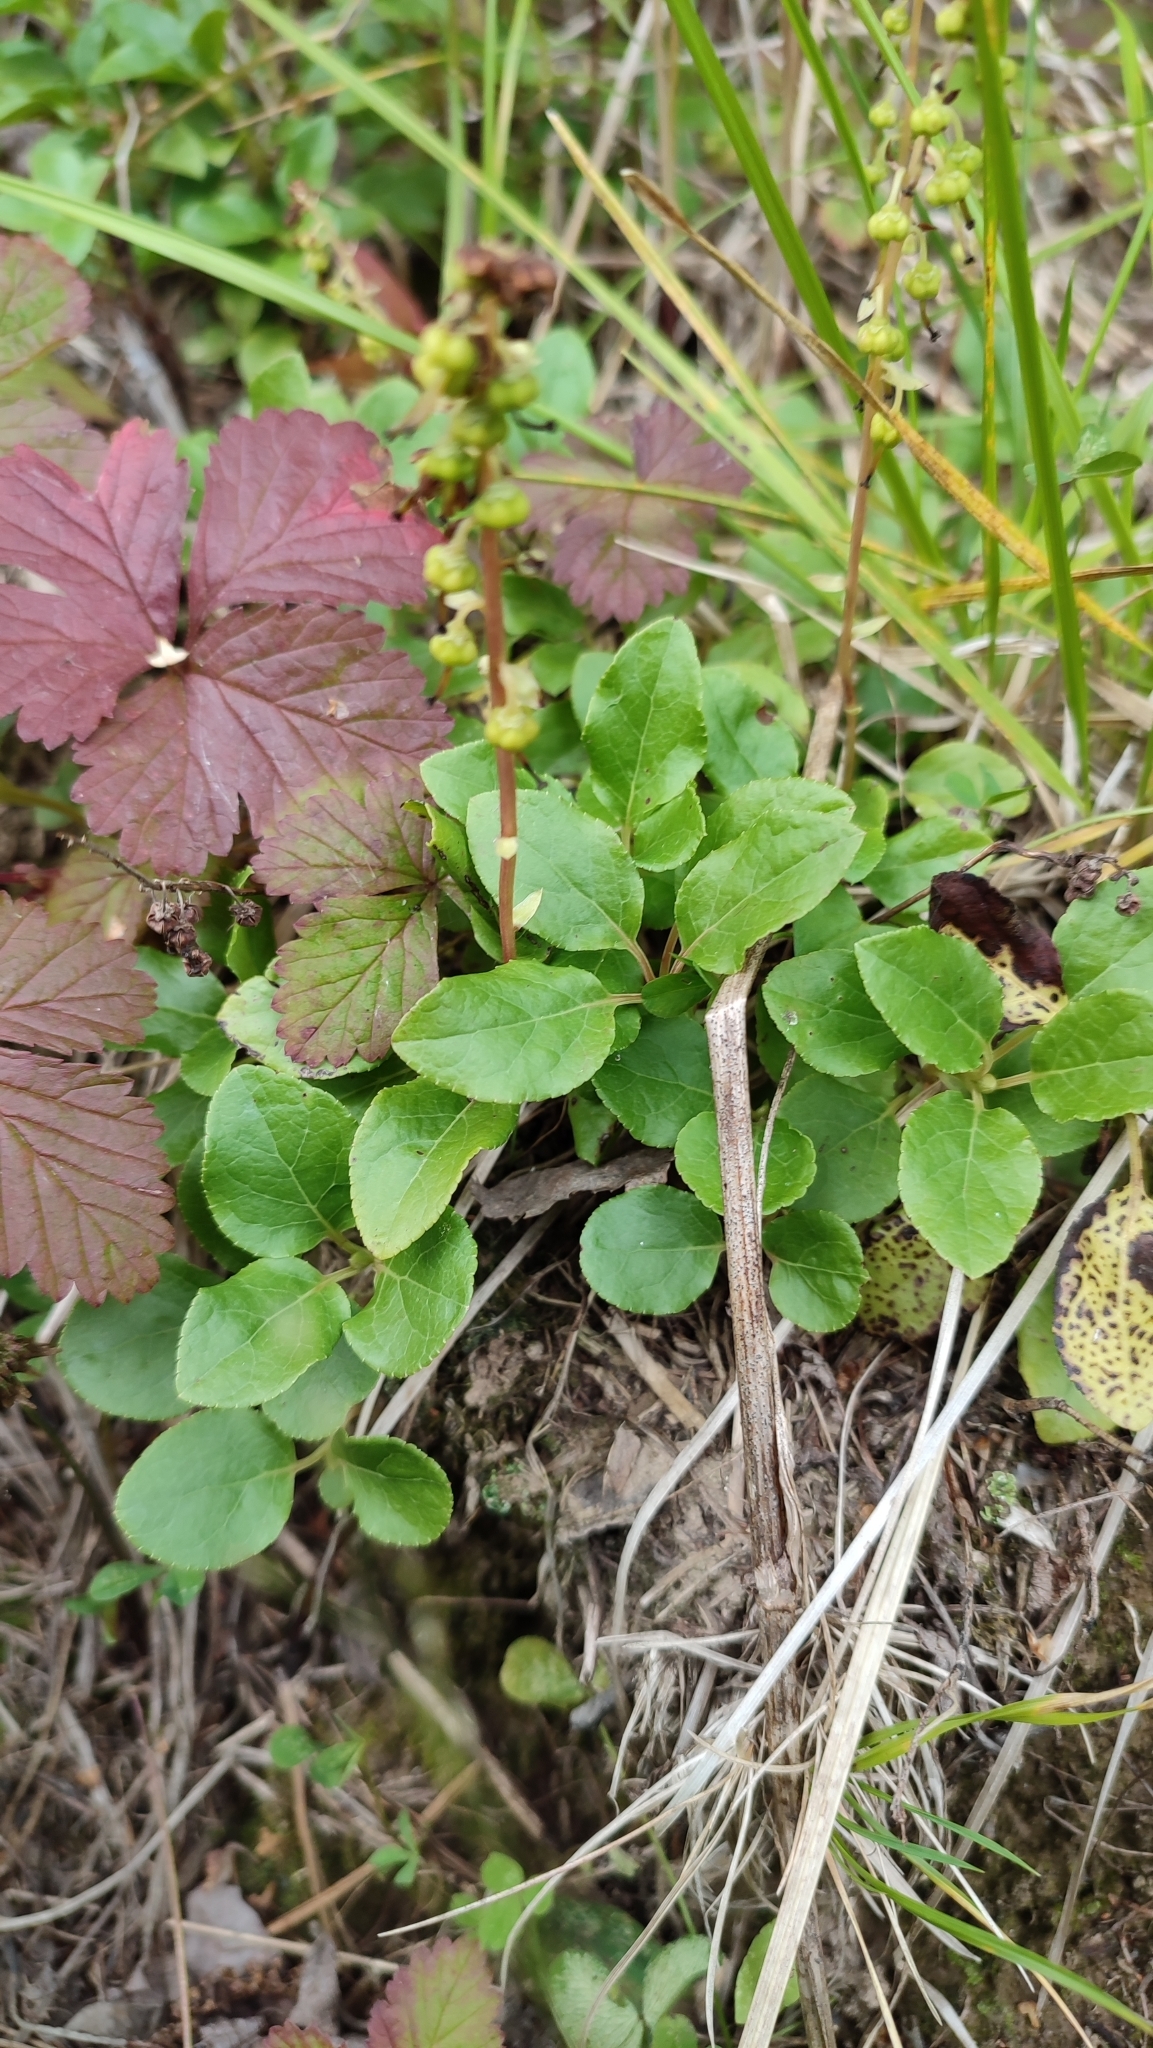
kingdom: Plantae
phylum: Tracheophyta
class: Magnoliopsida
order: Ericales
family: Ericaceae
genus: Orthilia
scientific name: Orthilia secunda
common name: One-sided orthilia
